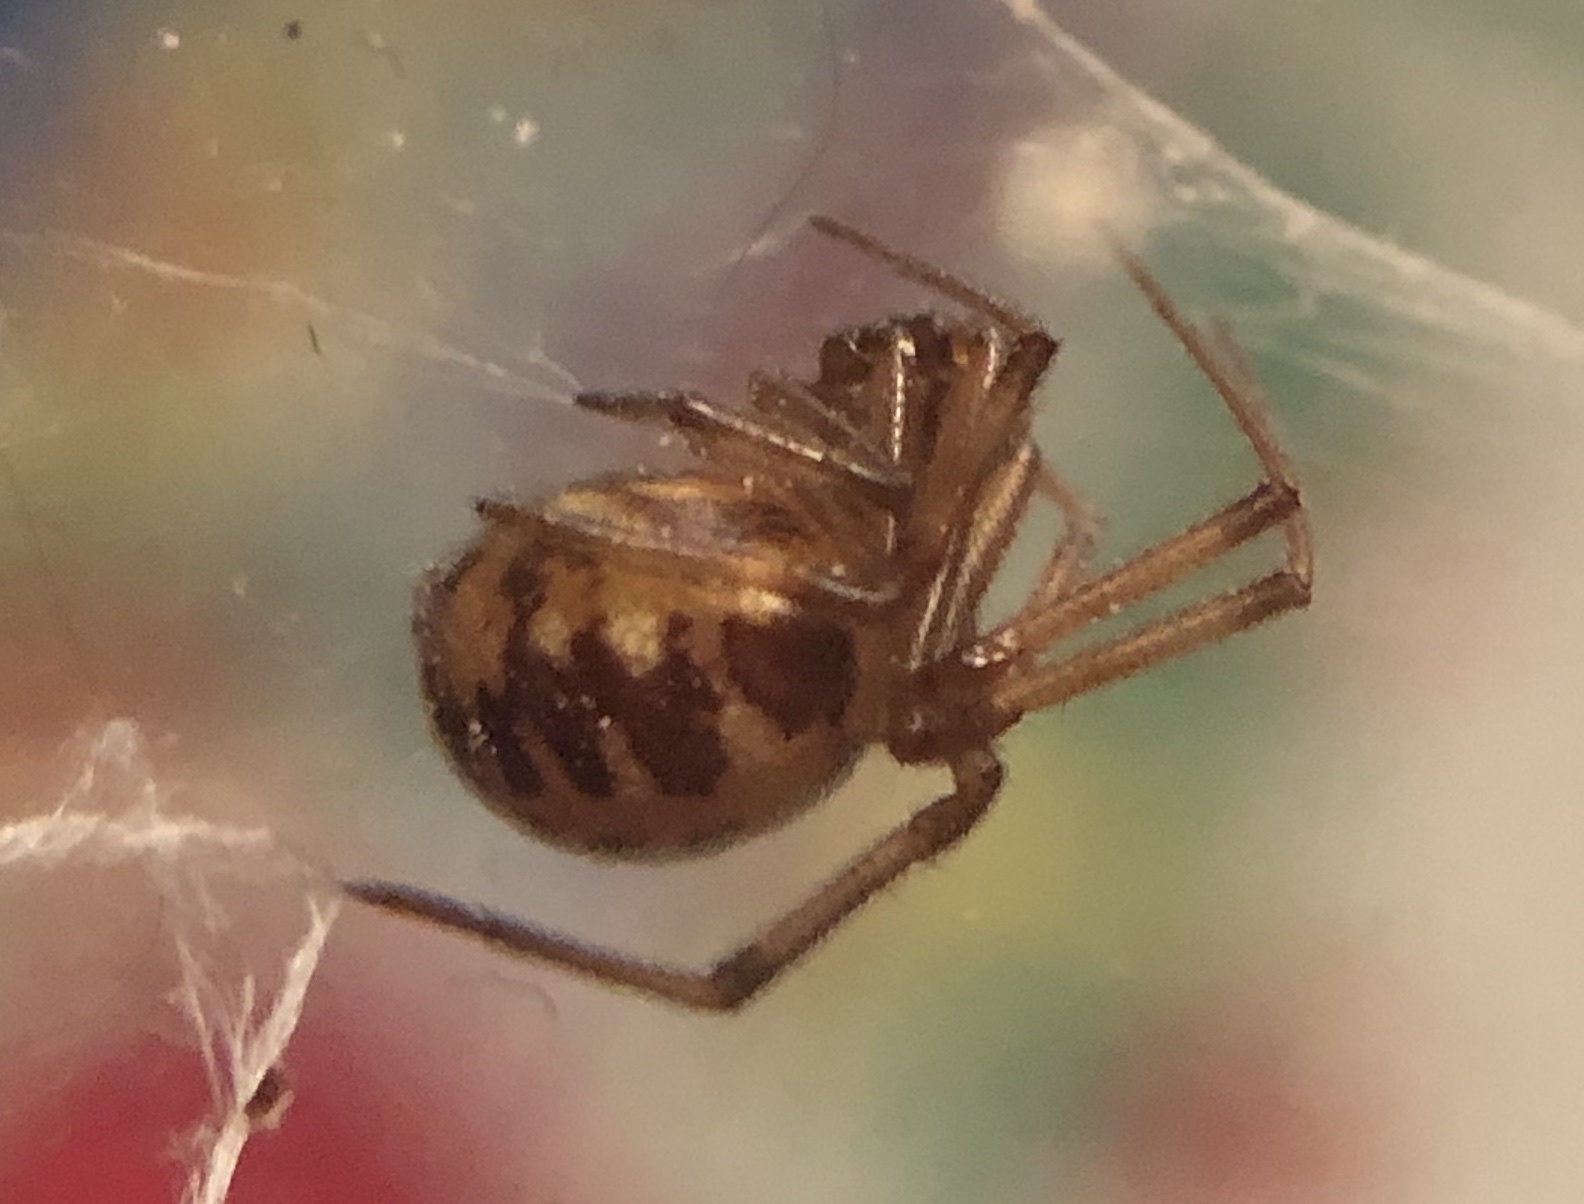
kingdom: Animalia
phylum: Arthropoda
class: Arachnida
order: Araneae
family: Theridiidae
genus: Steatoda
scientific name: Steatoda triangulosa
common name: Triangulate bud spider
